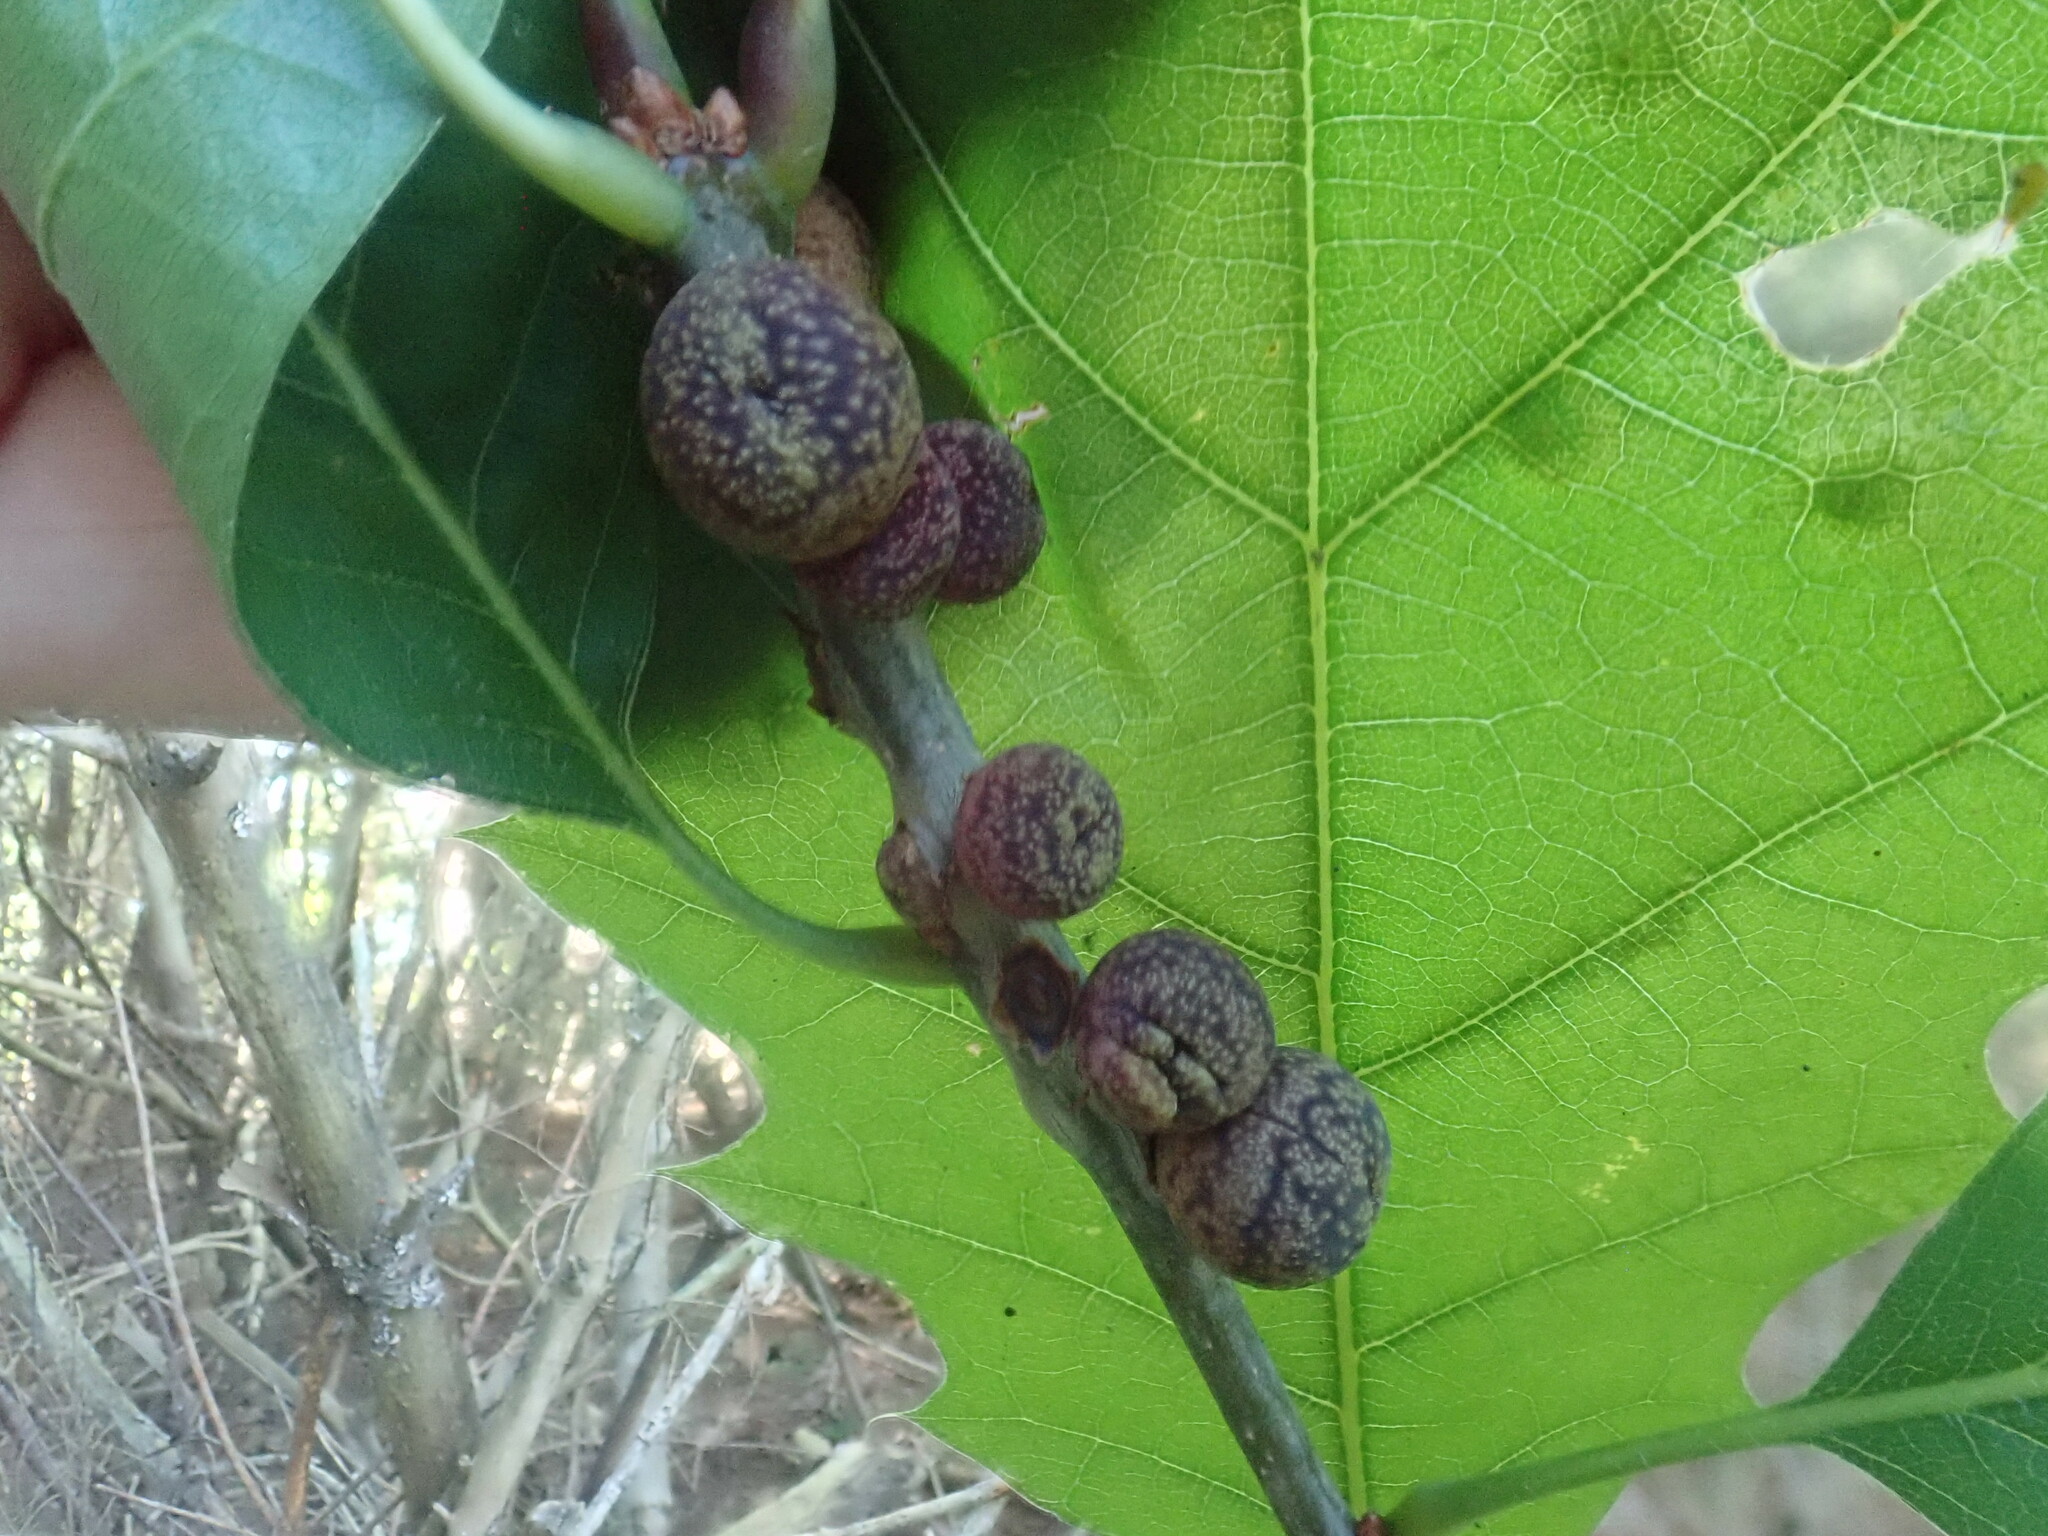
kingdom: Animalia
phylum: Arthropoda
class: Insecta
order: Hymenoptera
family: Cynipidae
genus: Kokkocynips
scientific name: Kokkocynips imbricariae
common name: Banded bullet gall wasp
